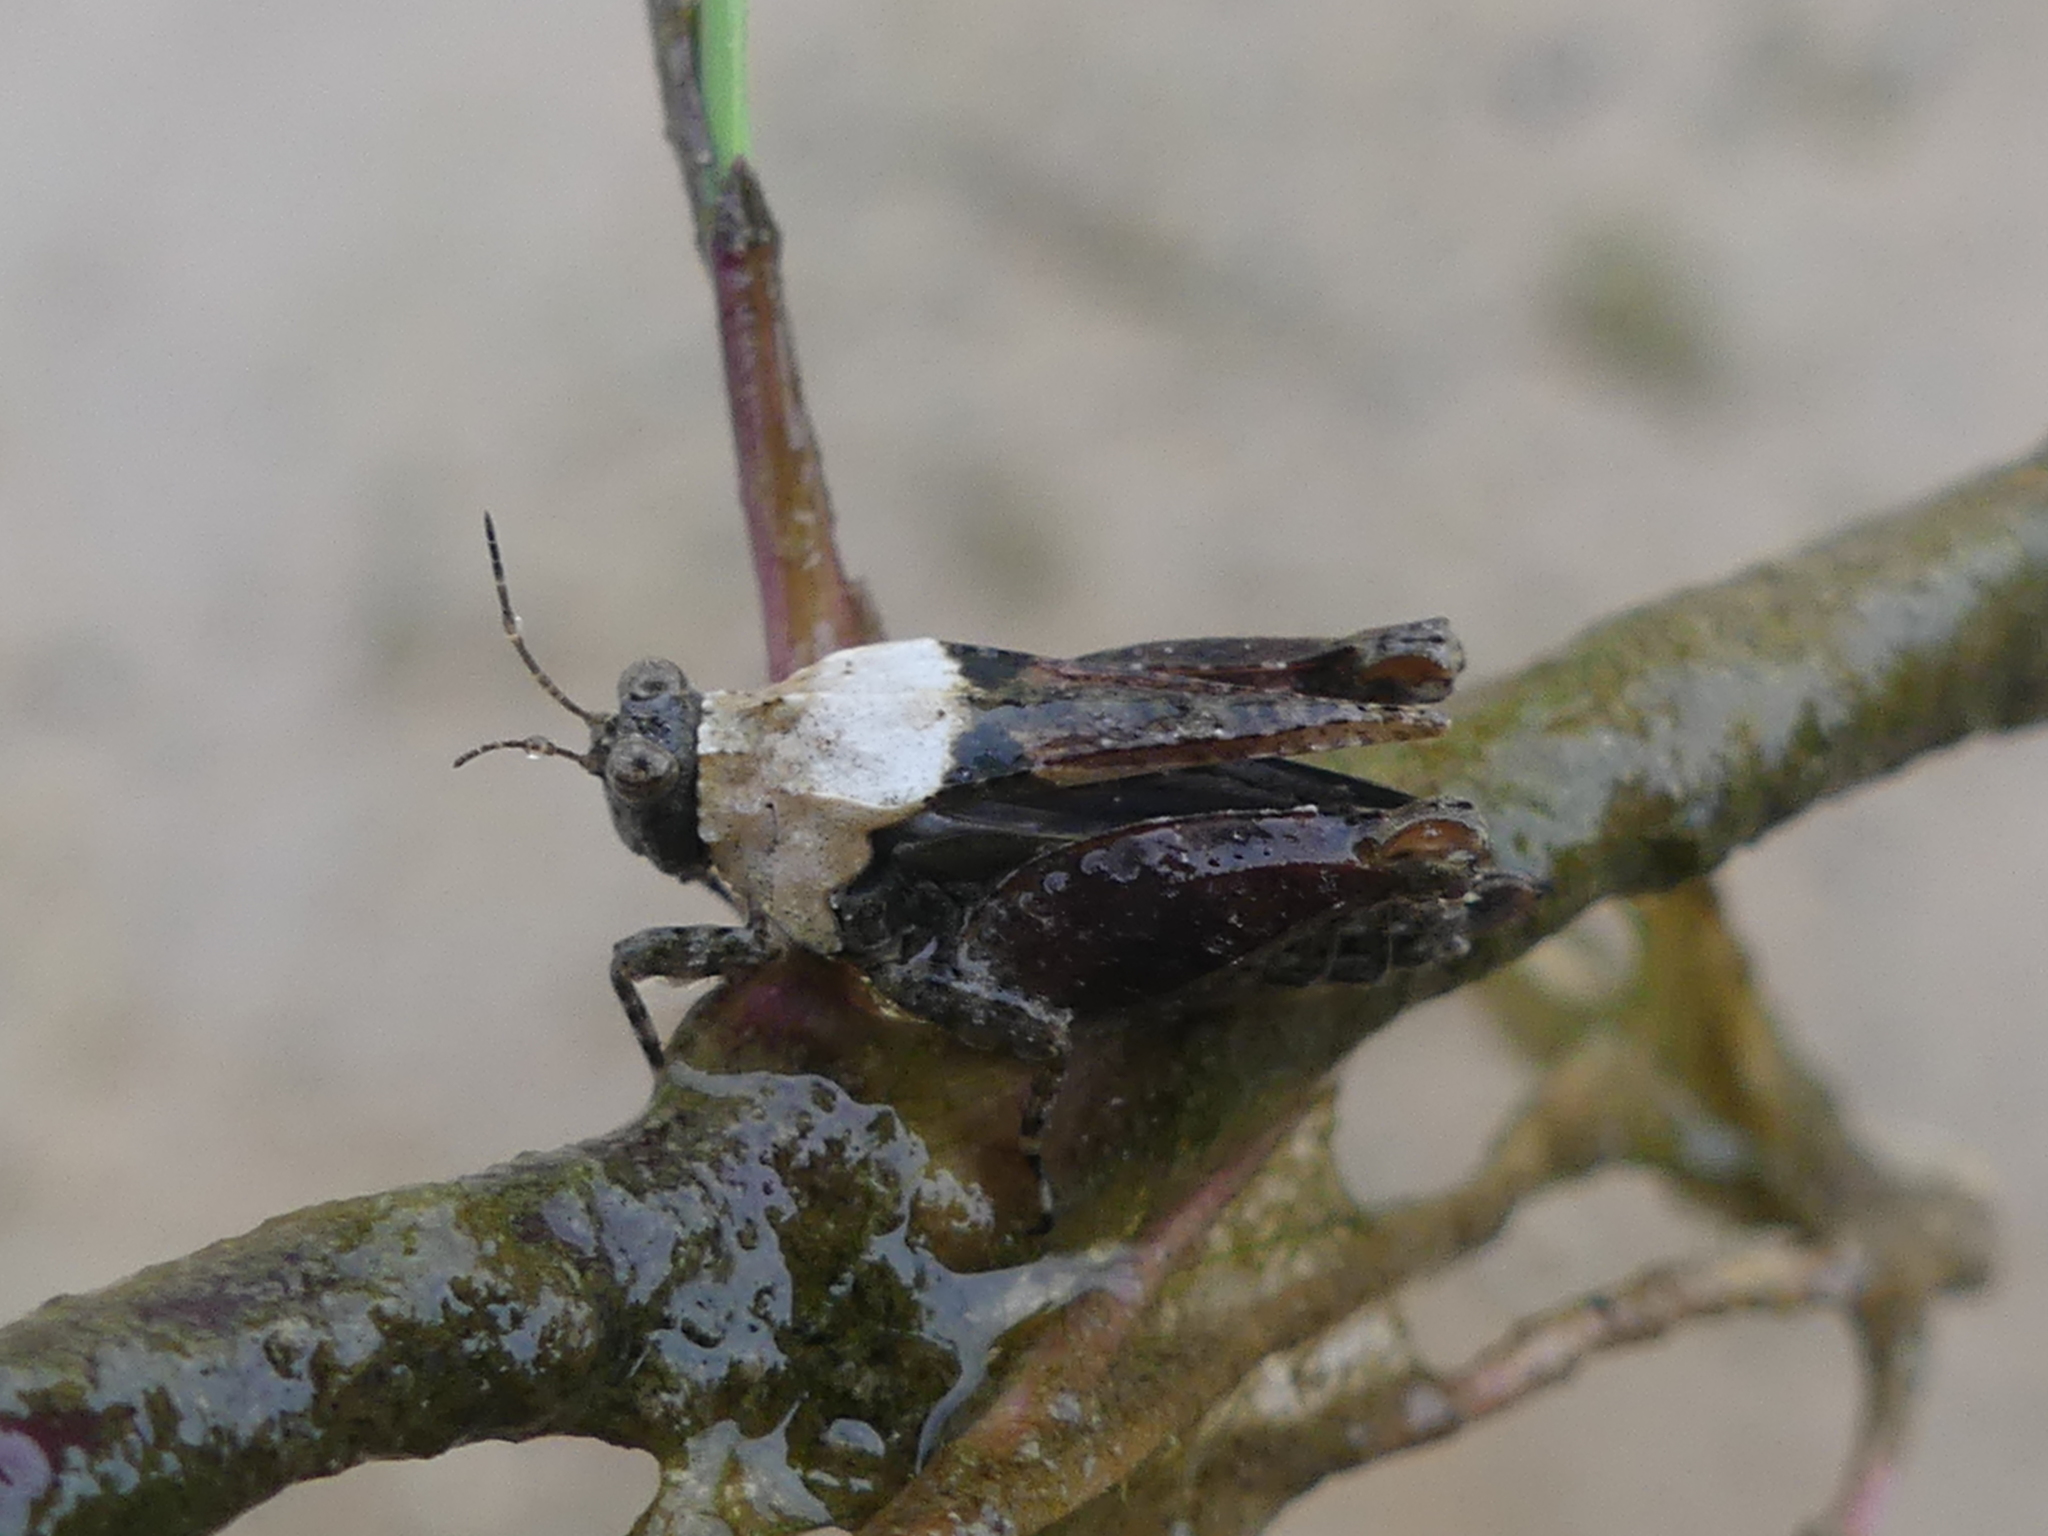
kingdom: Animalia
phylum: Arthropoda
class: Insecta
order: Orthoptera
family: Tetrigidae
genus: Paratettix
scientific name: Paratettix mexicanus
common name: Mexican pygmy grasshopper
